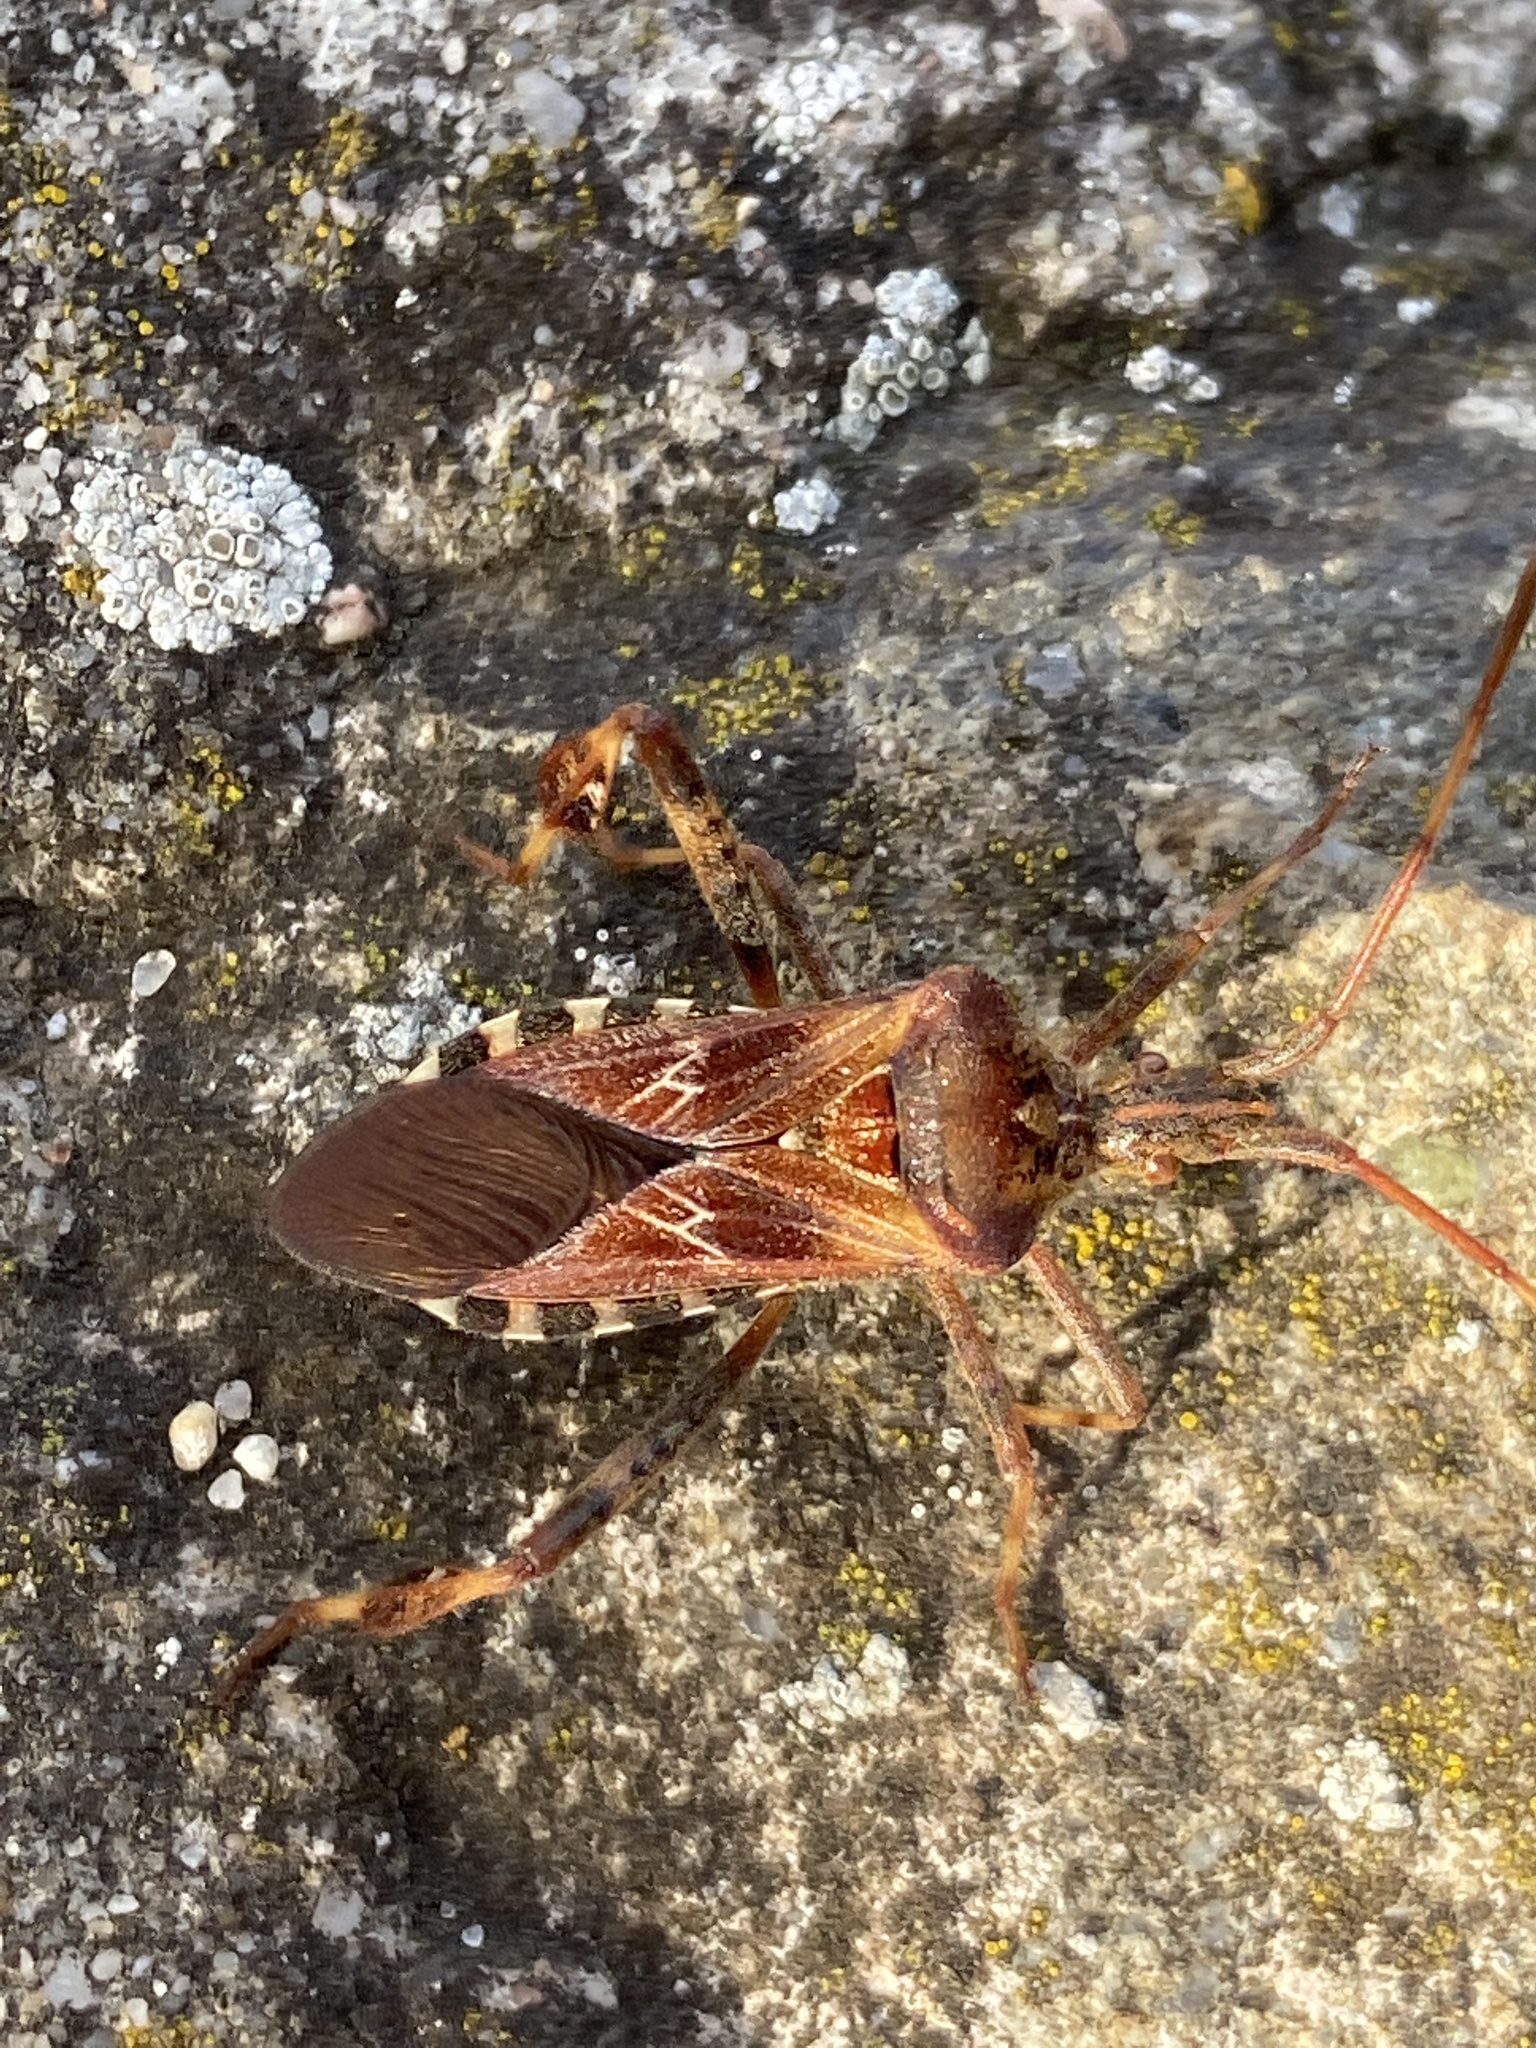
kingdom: Animalia
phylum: Arthropoda
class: Insecta
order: Hemiptera
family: Coreidae
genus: Leptoglossus
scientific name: Leptoglossus occidentalis
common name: Western conifer-seed bug
